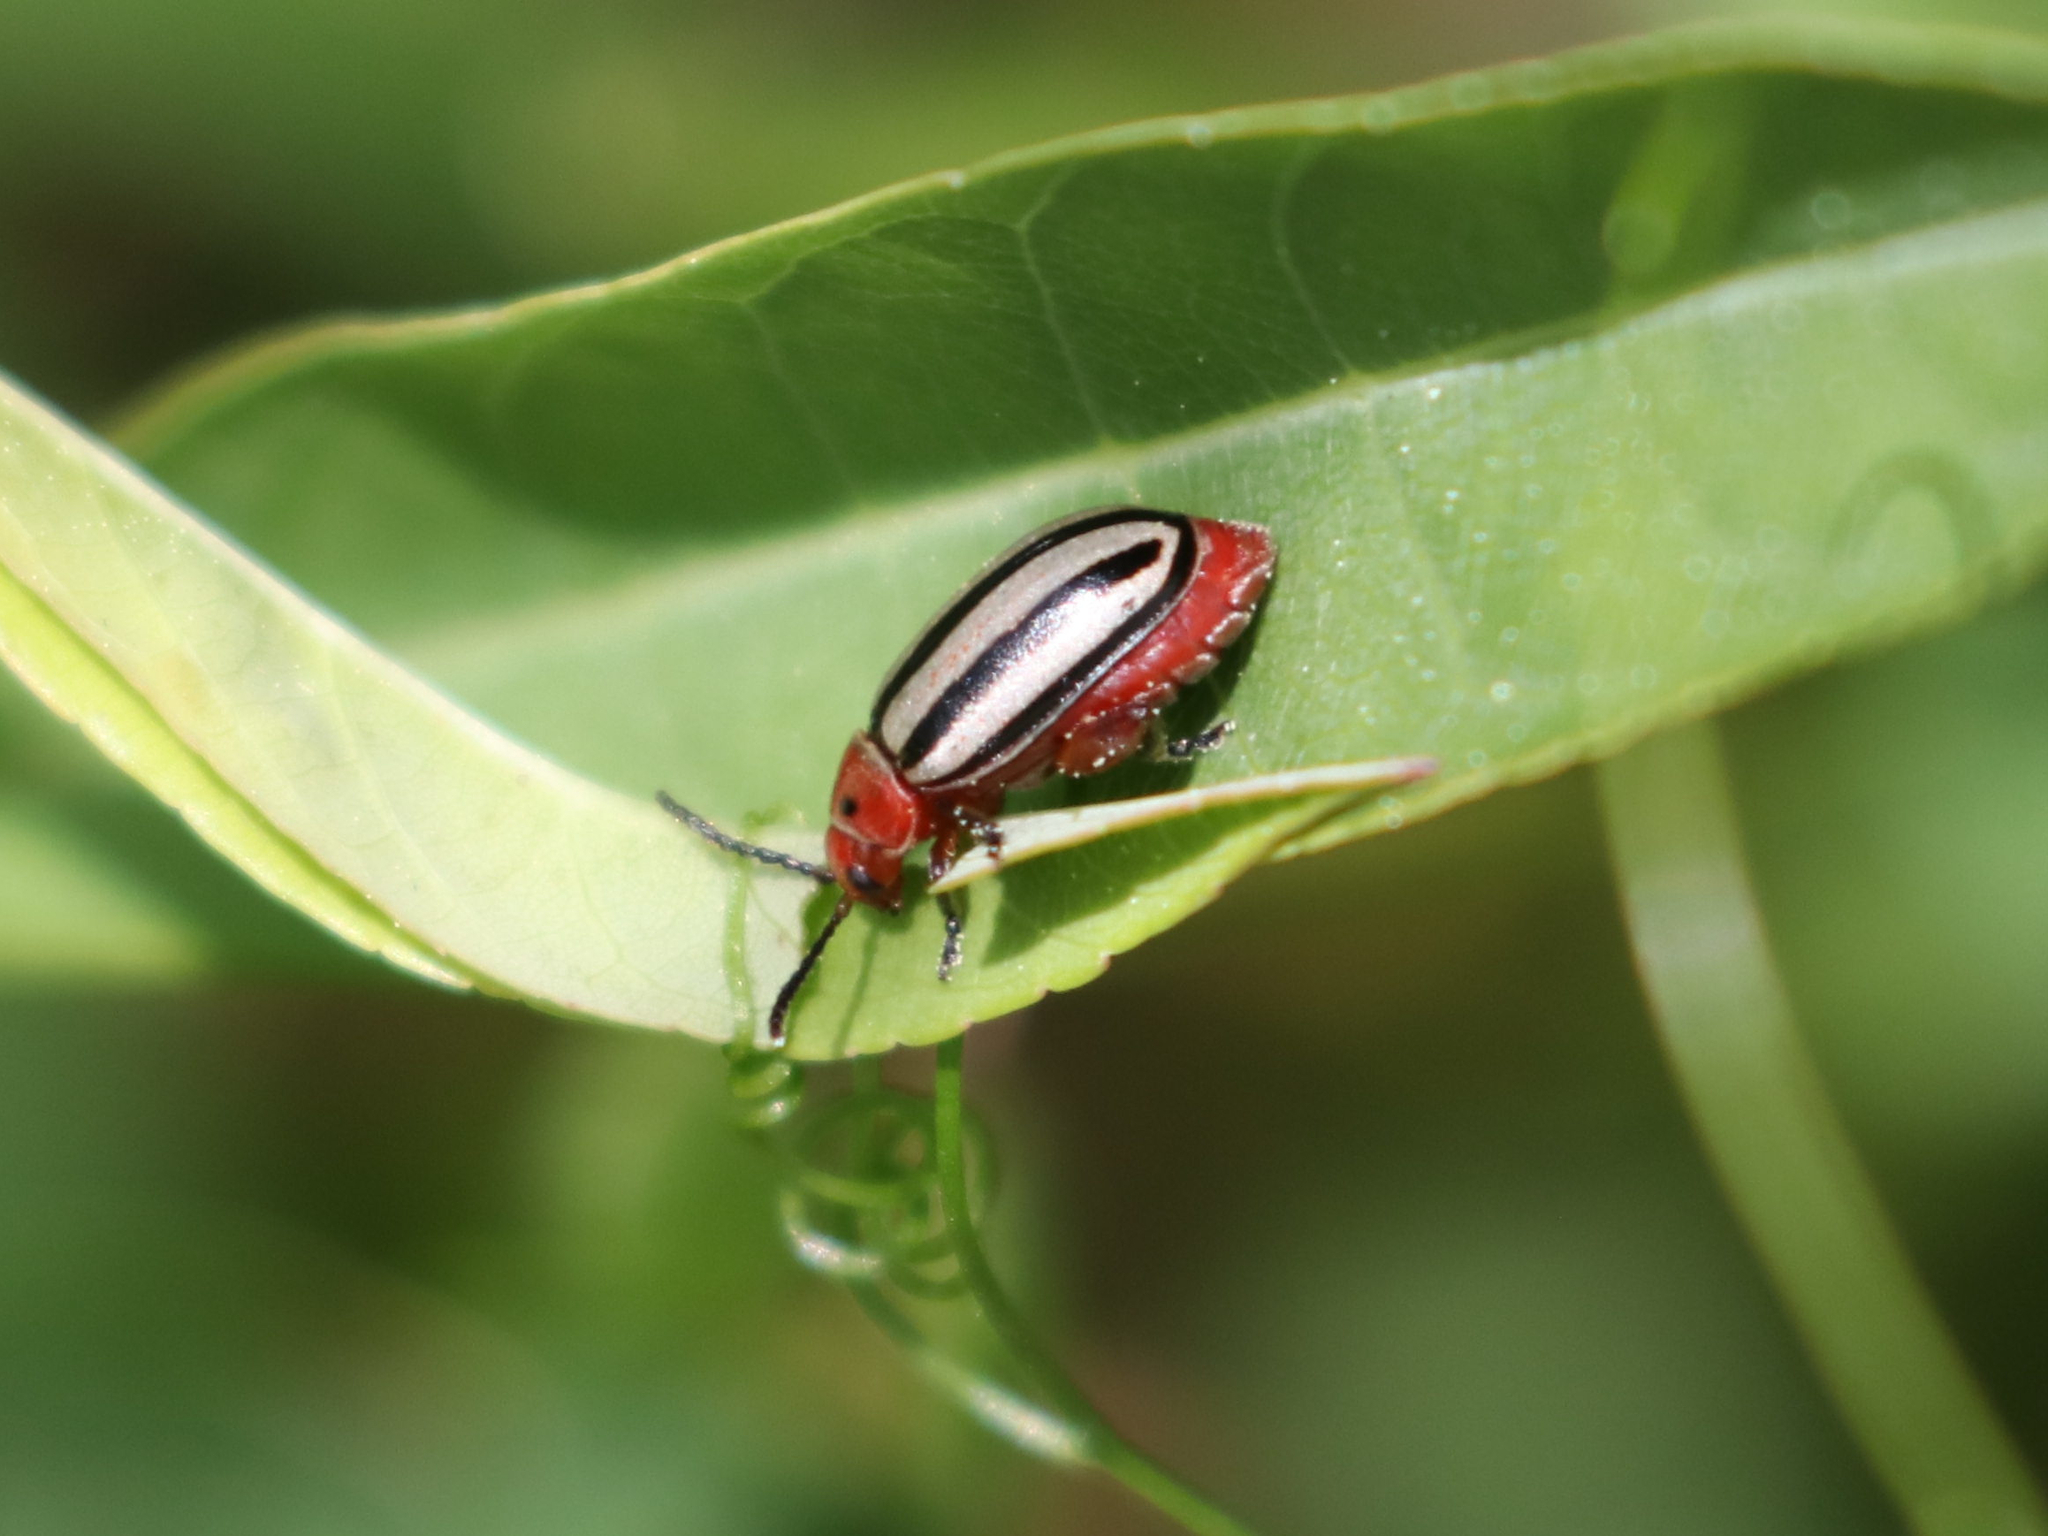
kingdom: Animalia
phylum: Arthropoda
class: Insecta
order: Coleoptera
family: Chrysomelidae
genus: Disonycha
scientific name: Disonycha alternata
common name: Striped willow leaf beetle
